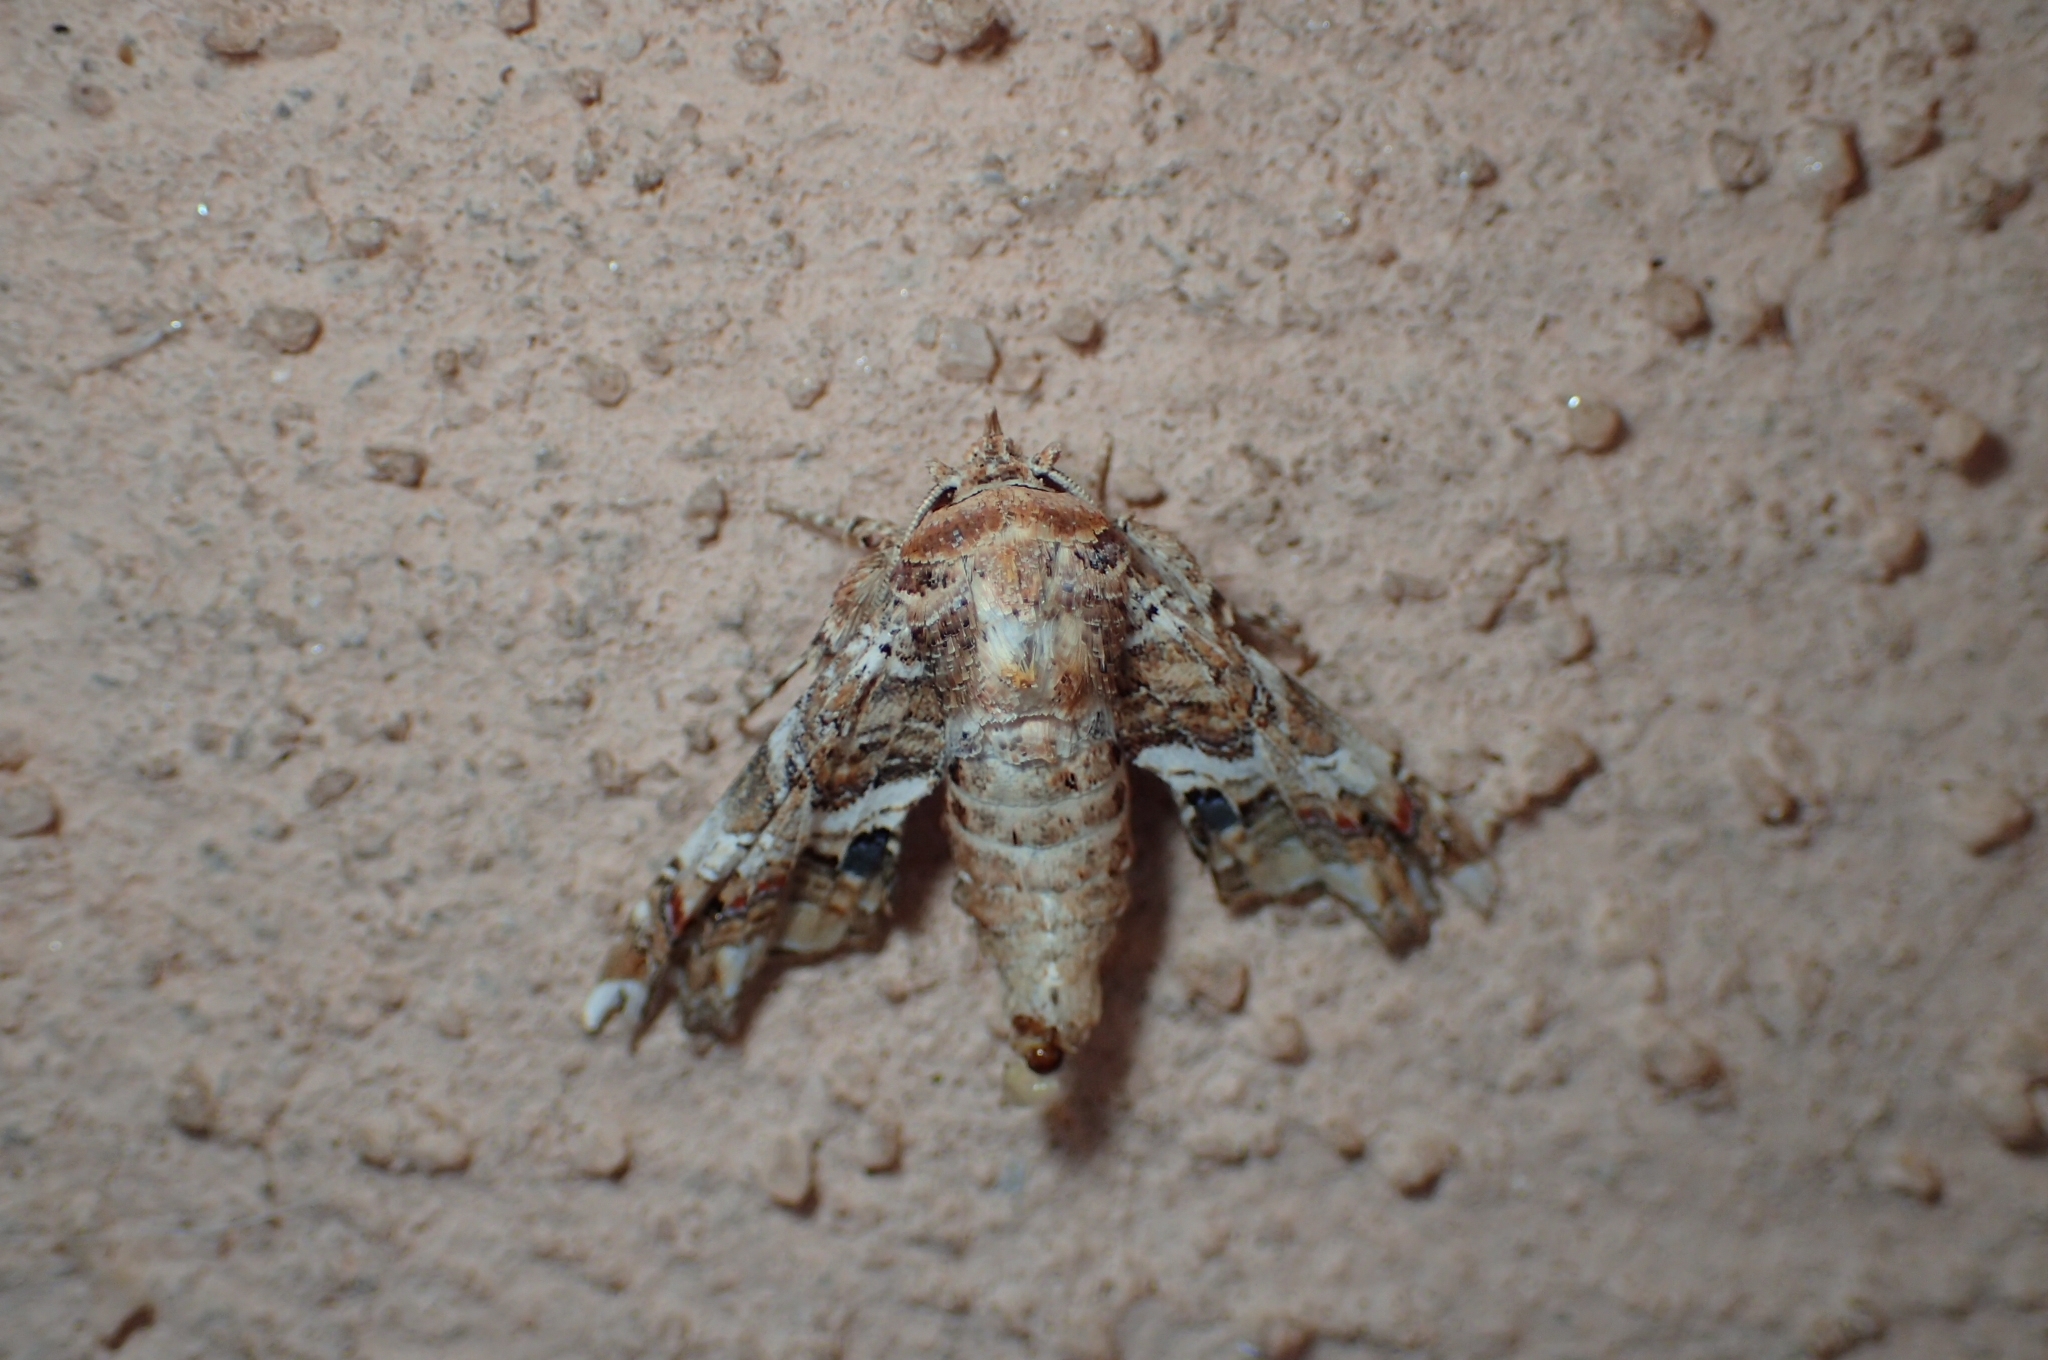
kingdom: Animalia
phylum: Arthropoda
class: Insecta
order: Lepidoptera
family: Euteliidae
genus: Eutelia
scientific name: Eutelia adulatrix
